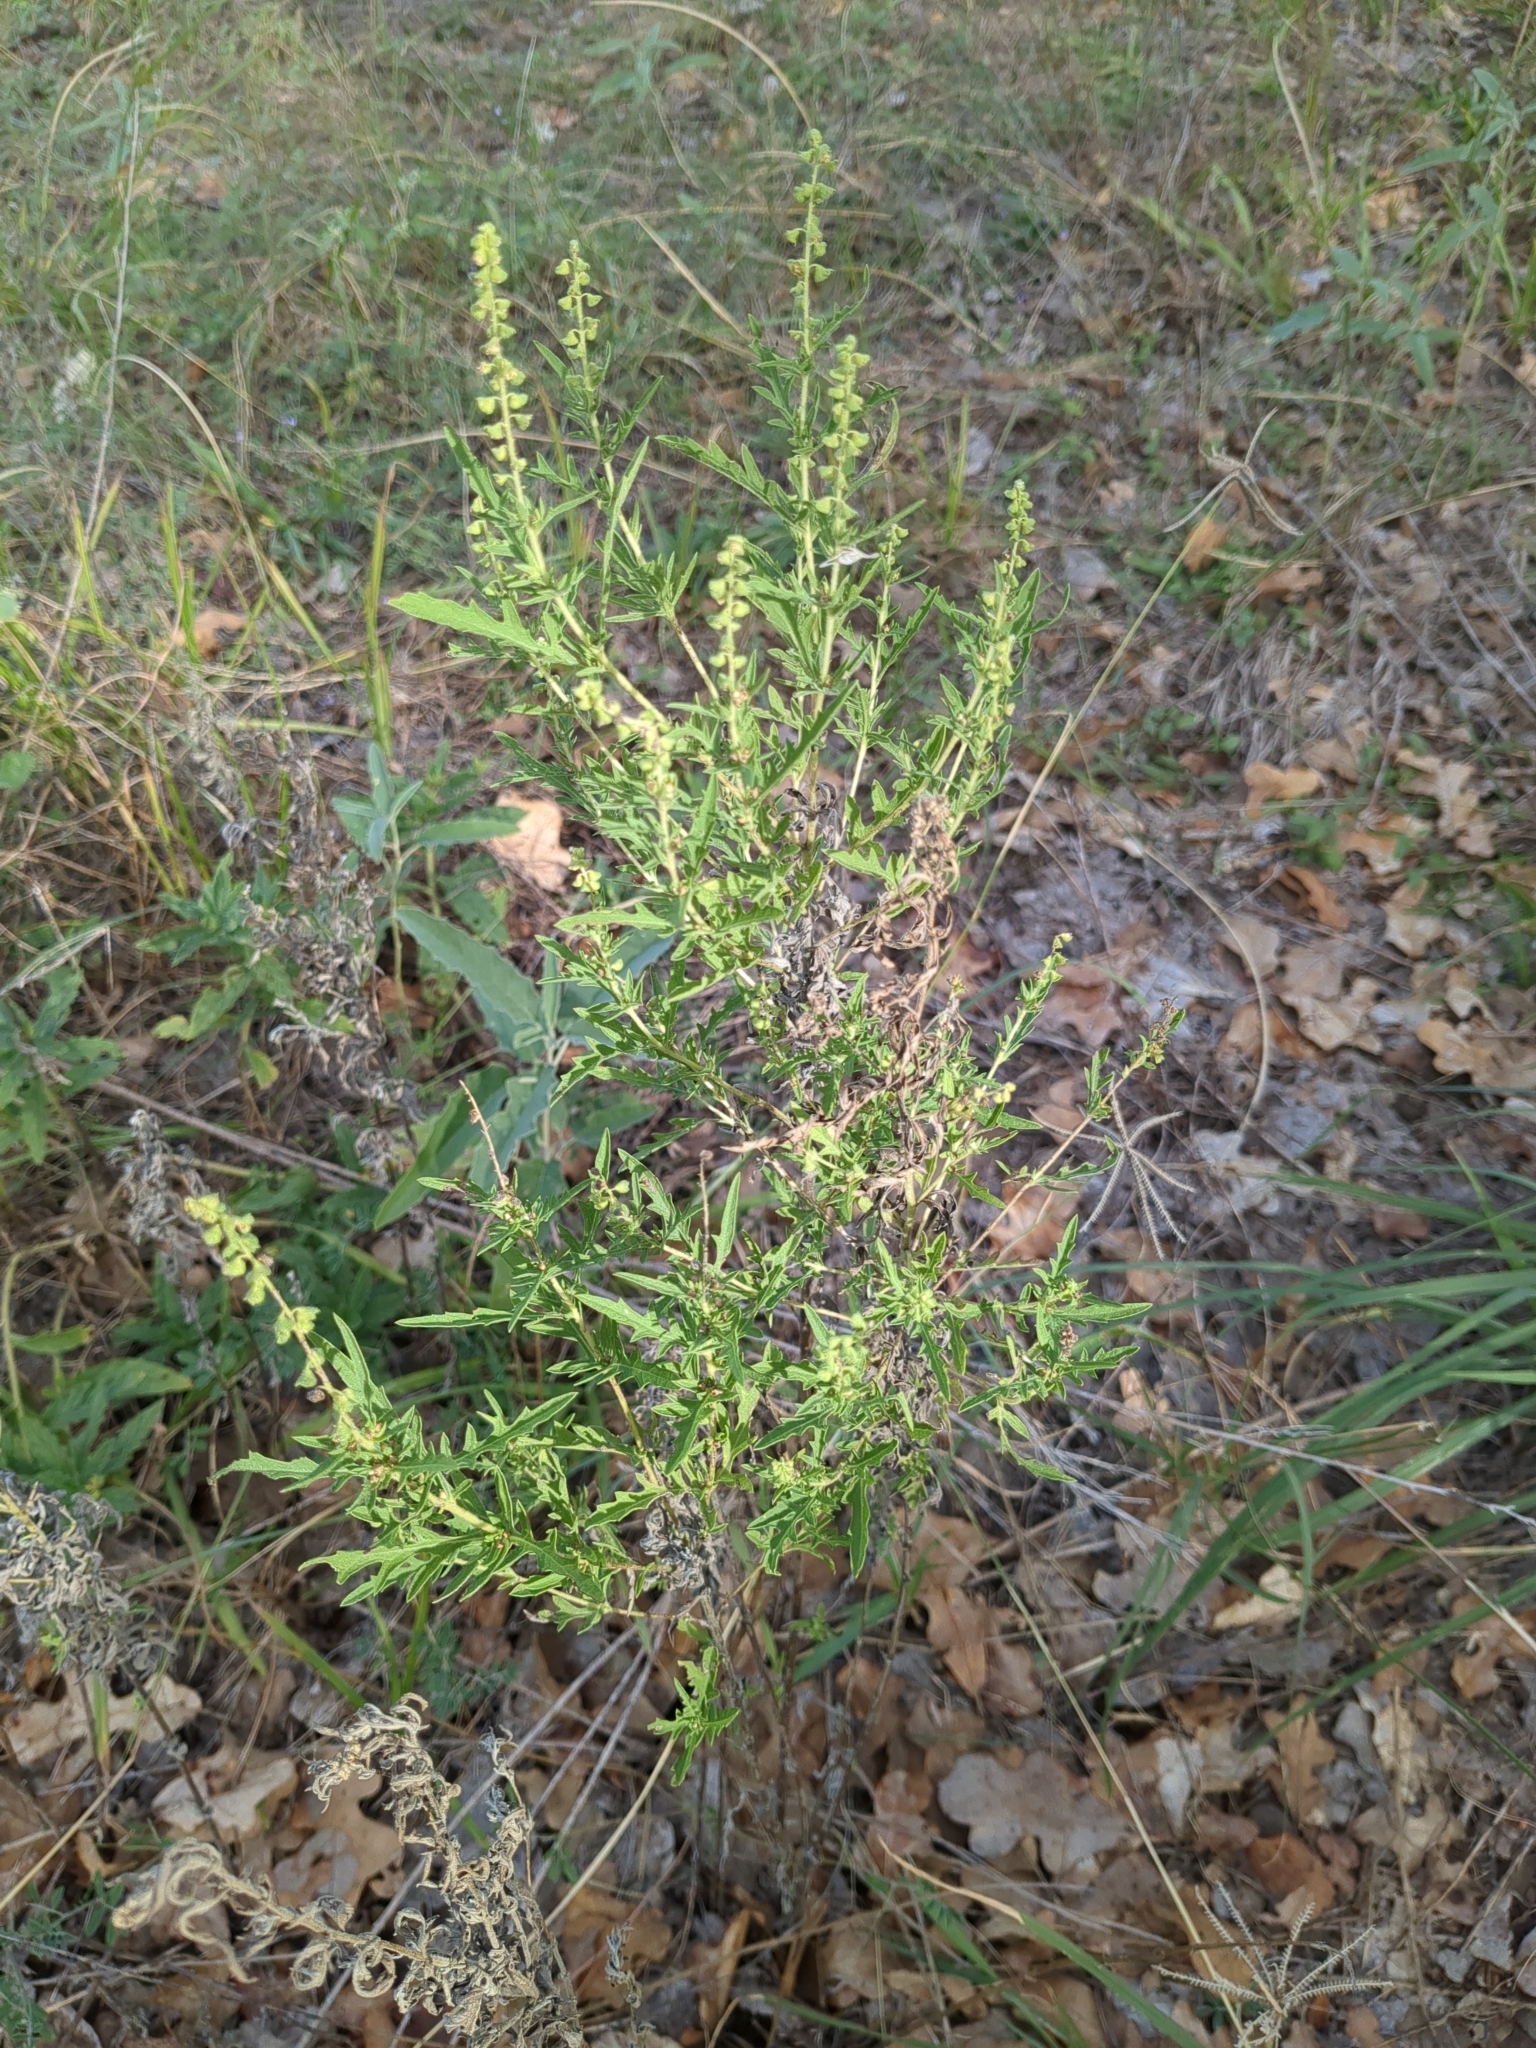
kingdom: Plantae
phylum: Tracheophyta
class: Magnoliopsida
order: Asterales
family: Asteraceae
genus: Ambrosia
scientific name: Ambrosia psilostachya
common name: Perennial ragweed
